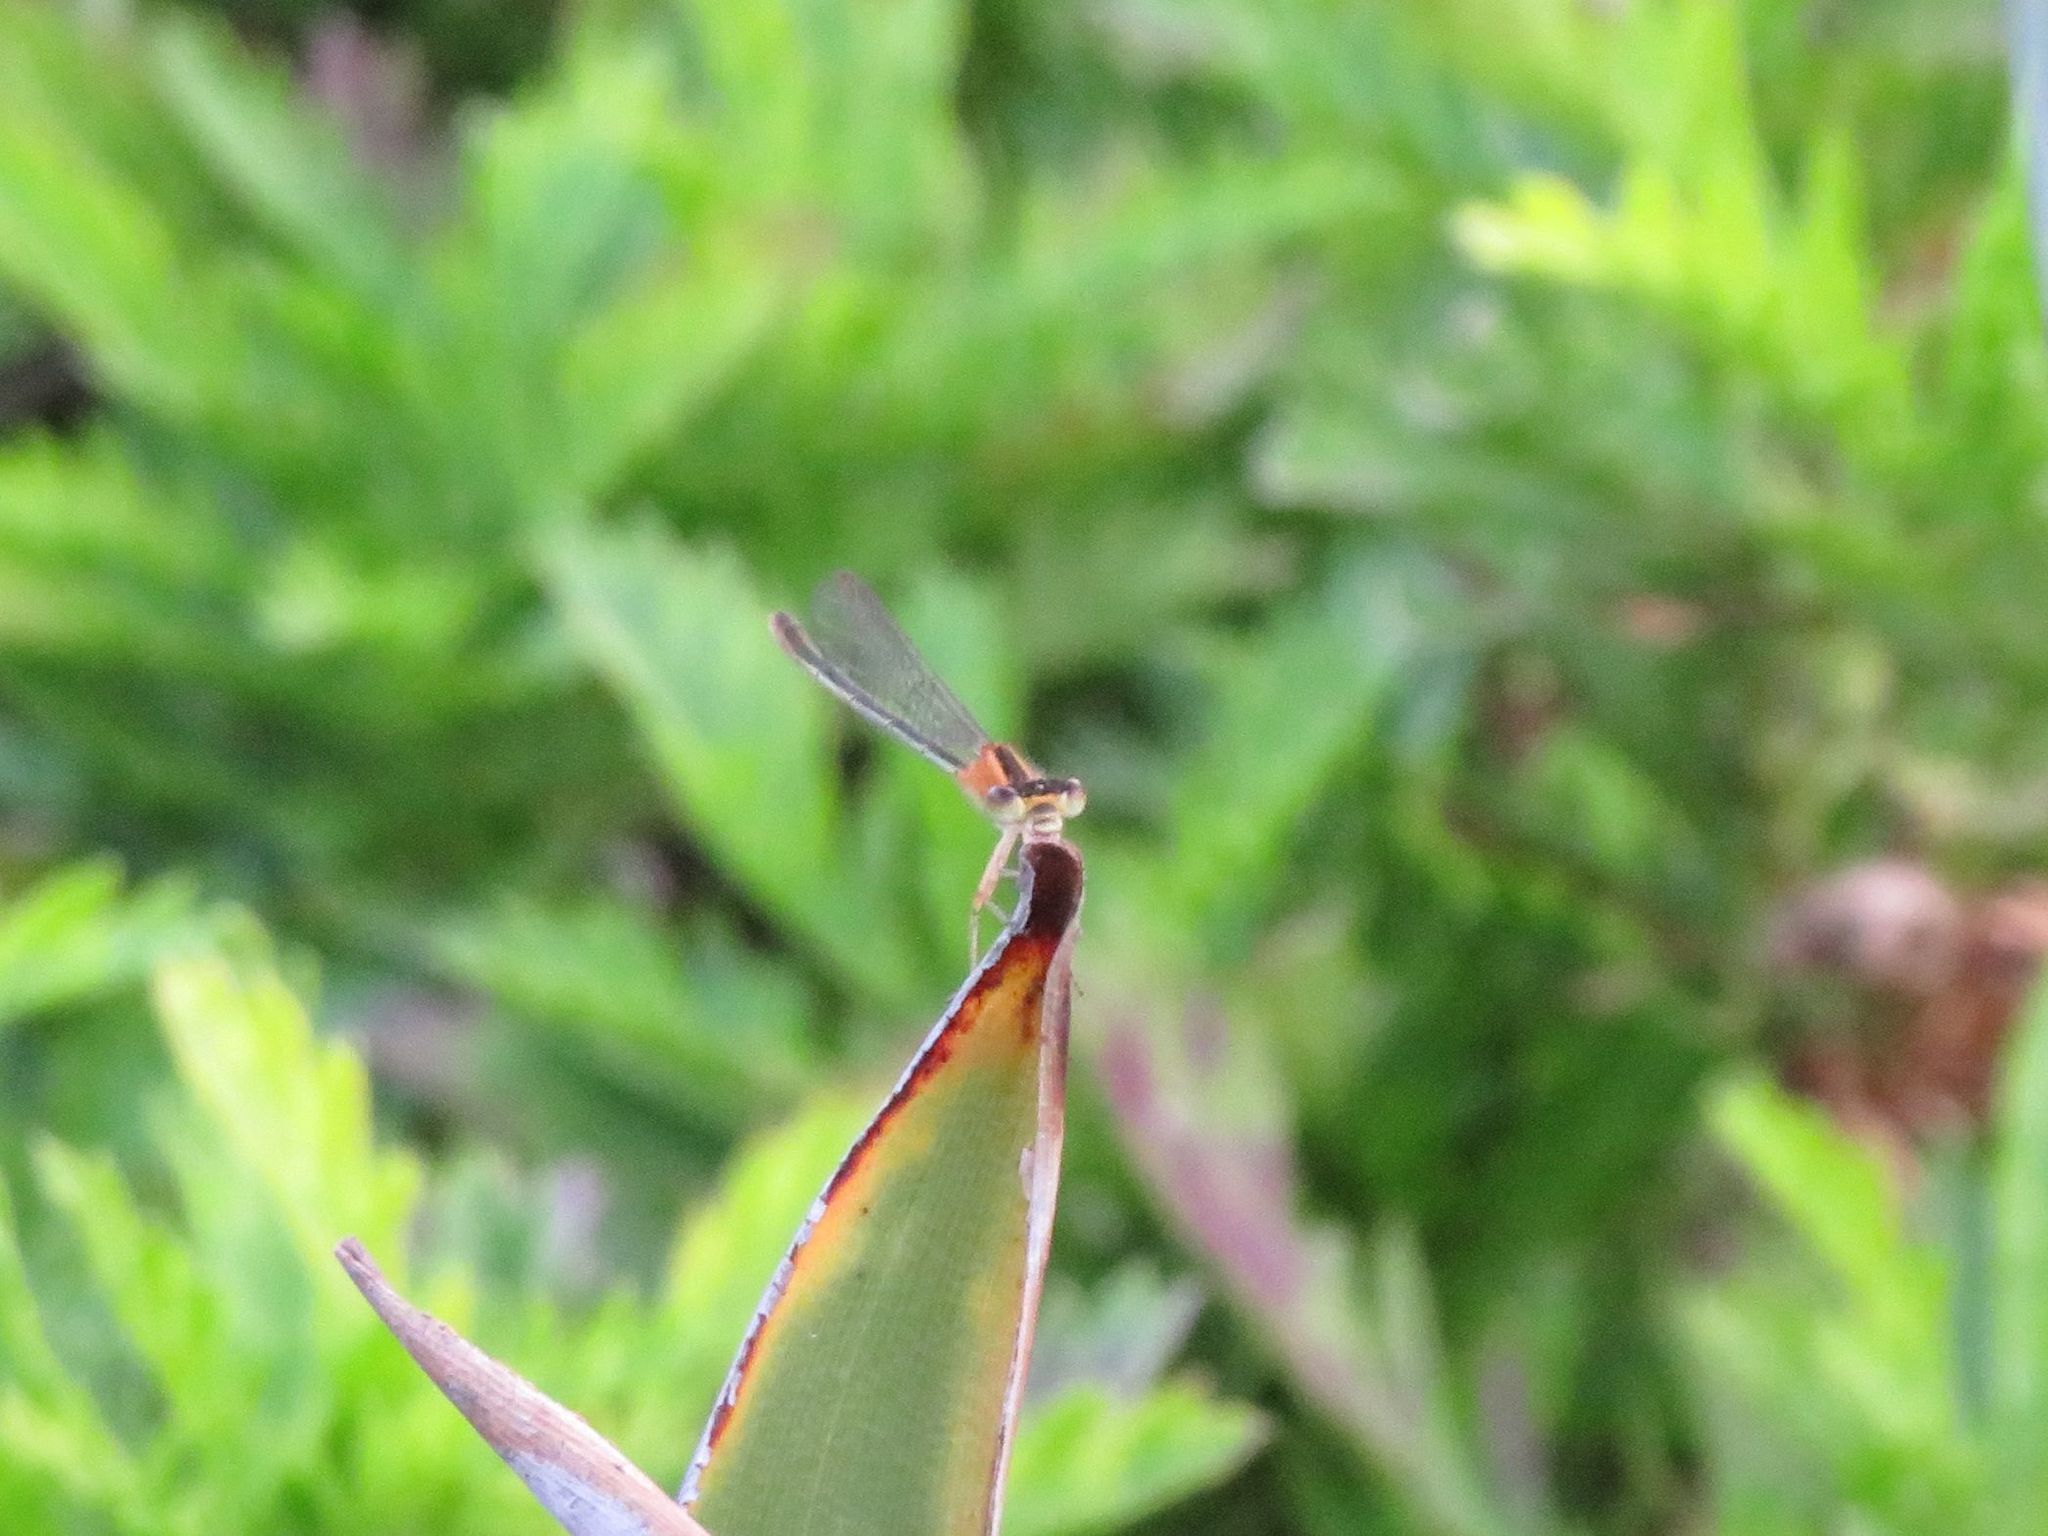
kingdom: Animalia
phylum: Arthropoda
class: Insecta
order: Odonata
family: Coenagrionidae
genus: Ischnura
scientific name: Ischnura fluviatilis
